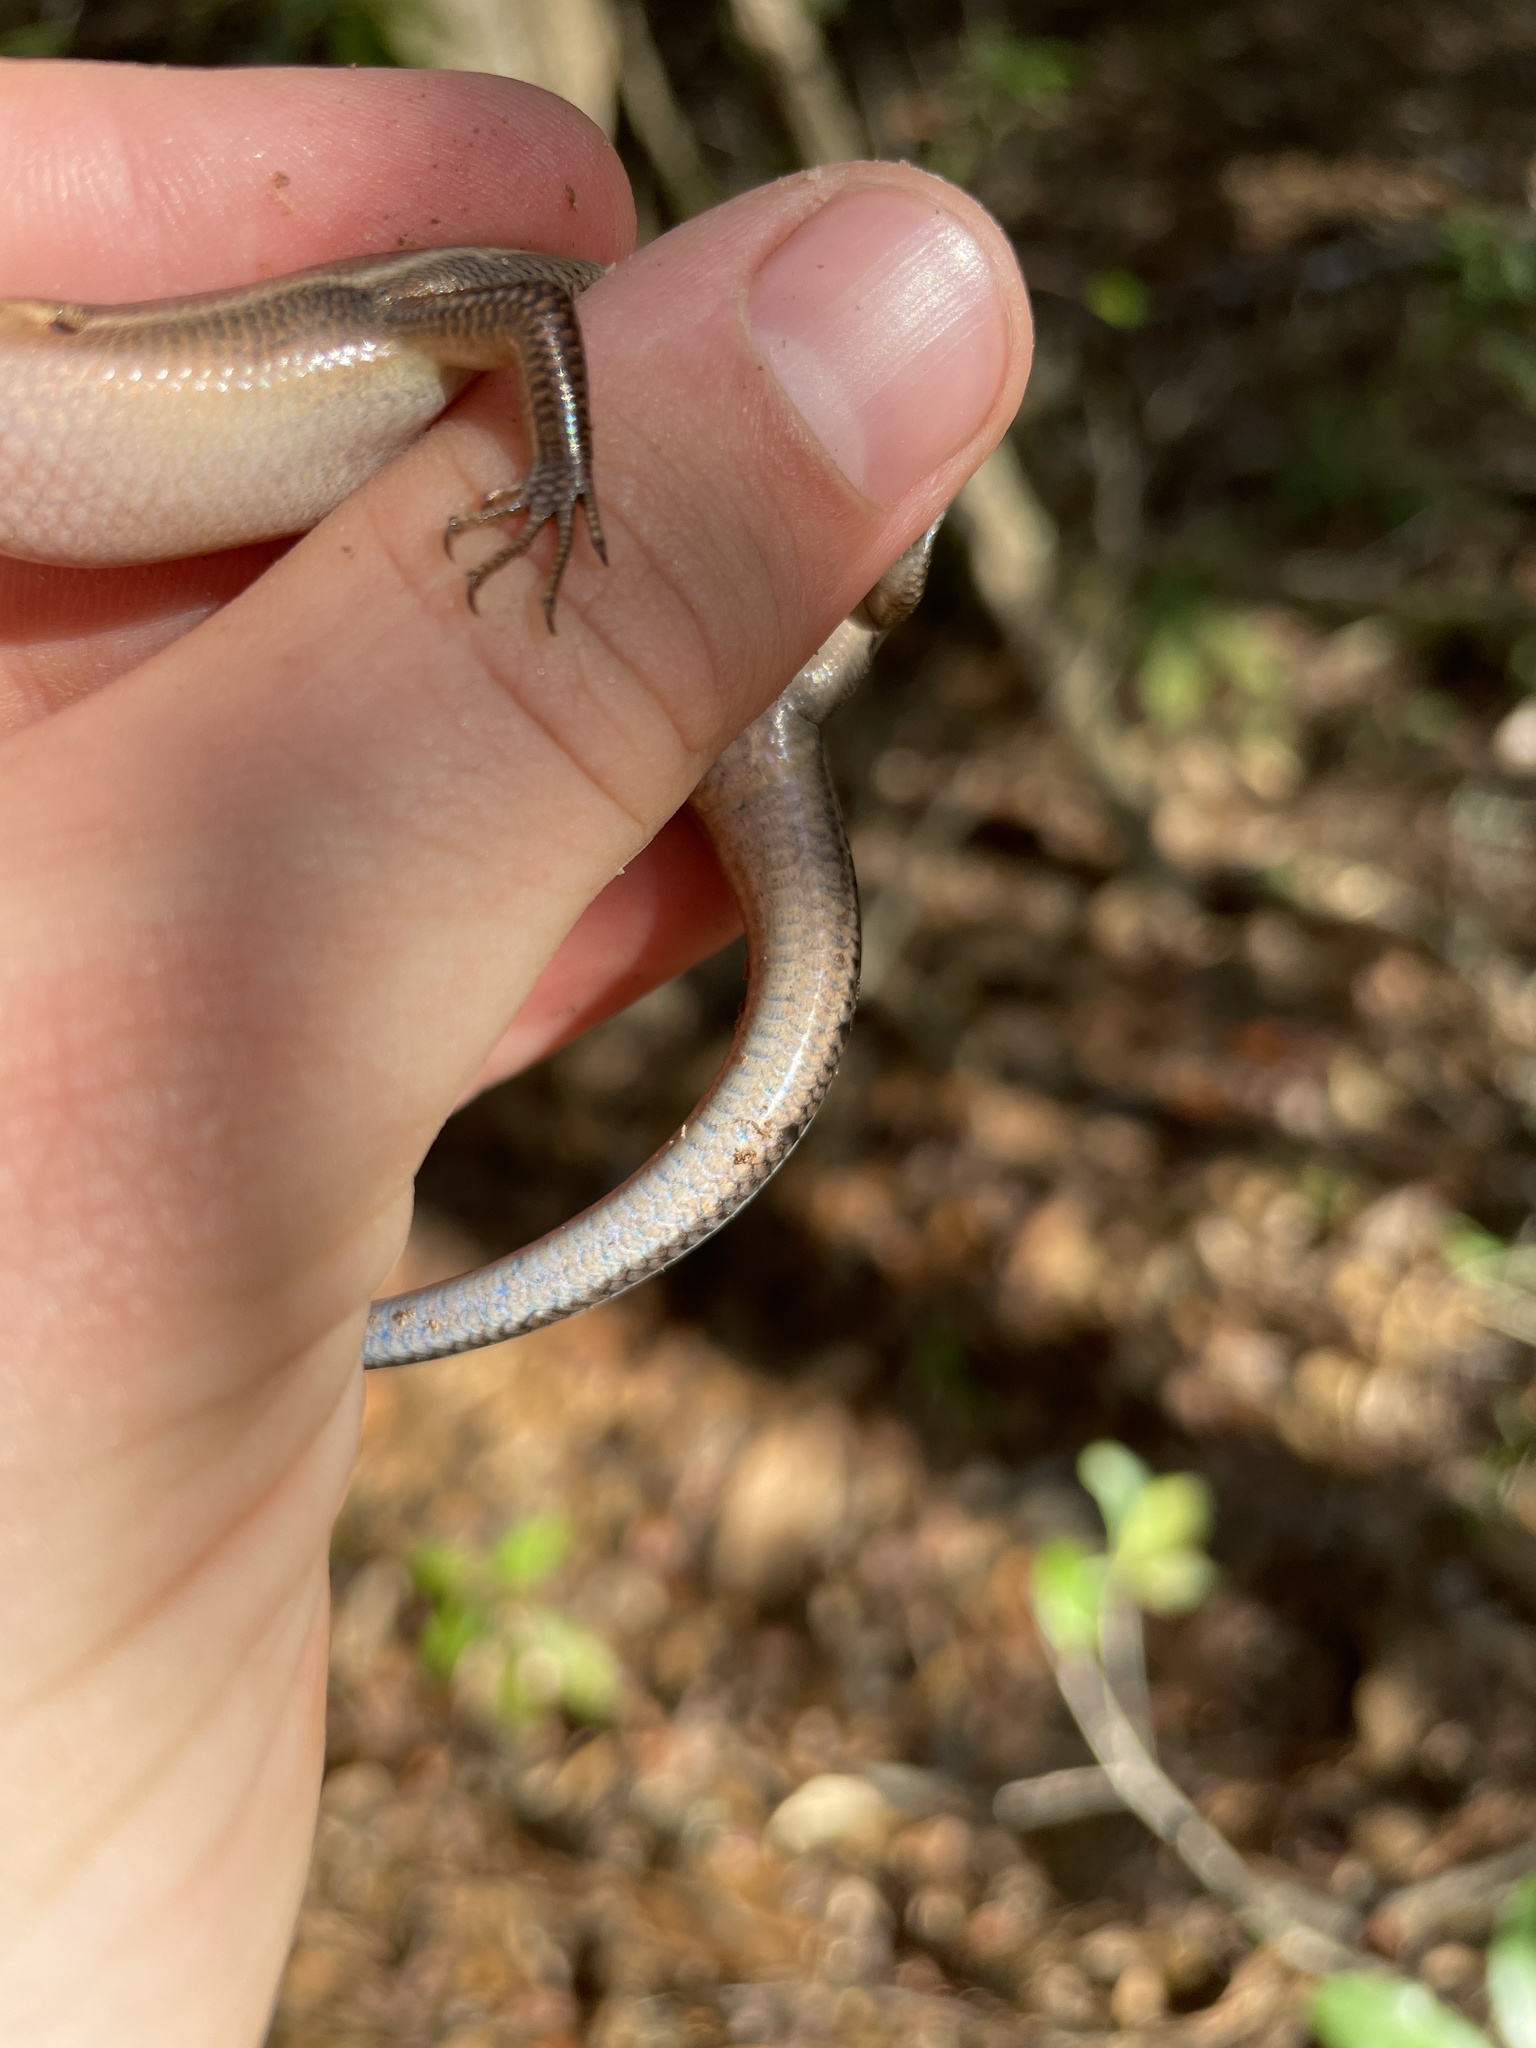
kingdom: Animalia
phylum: Chordata
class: Squamata
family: Scincidae
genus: Plestiodon
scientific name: Plestiodon fasciatus
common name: Five-lined skink
